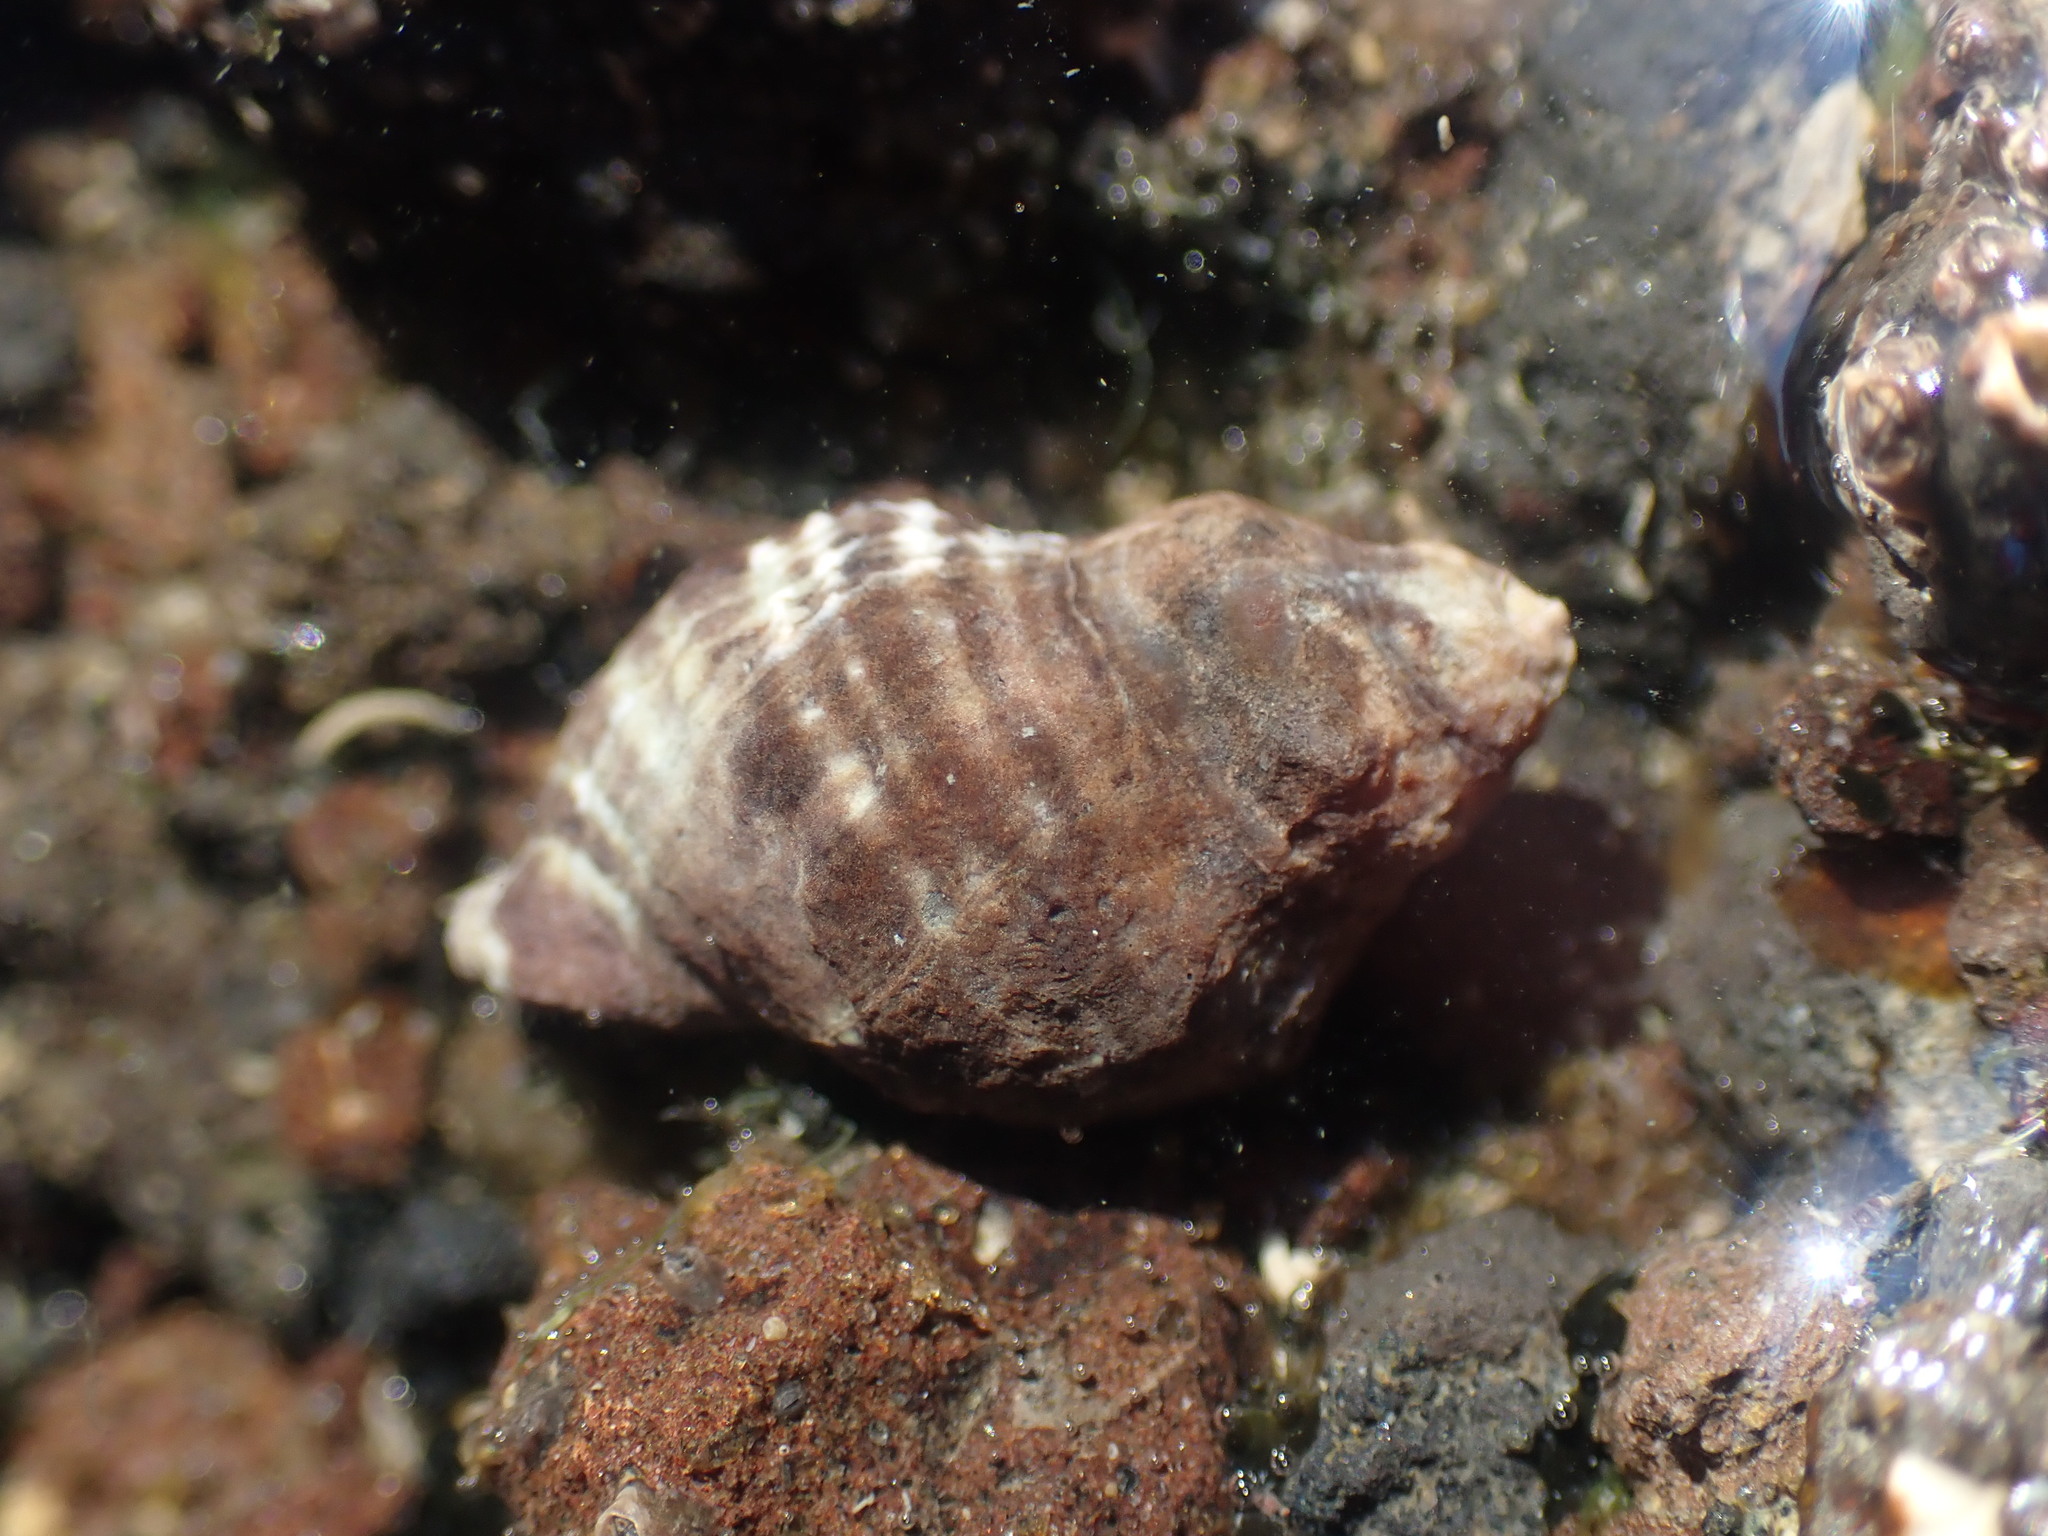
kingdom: Animalia
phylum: Mollusca
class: Gastropoda
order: Neogastropoda
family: Muricidae
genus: Haustrum
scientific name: Haustrum albomarginatum
